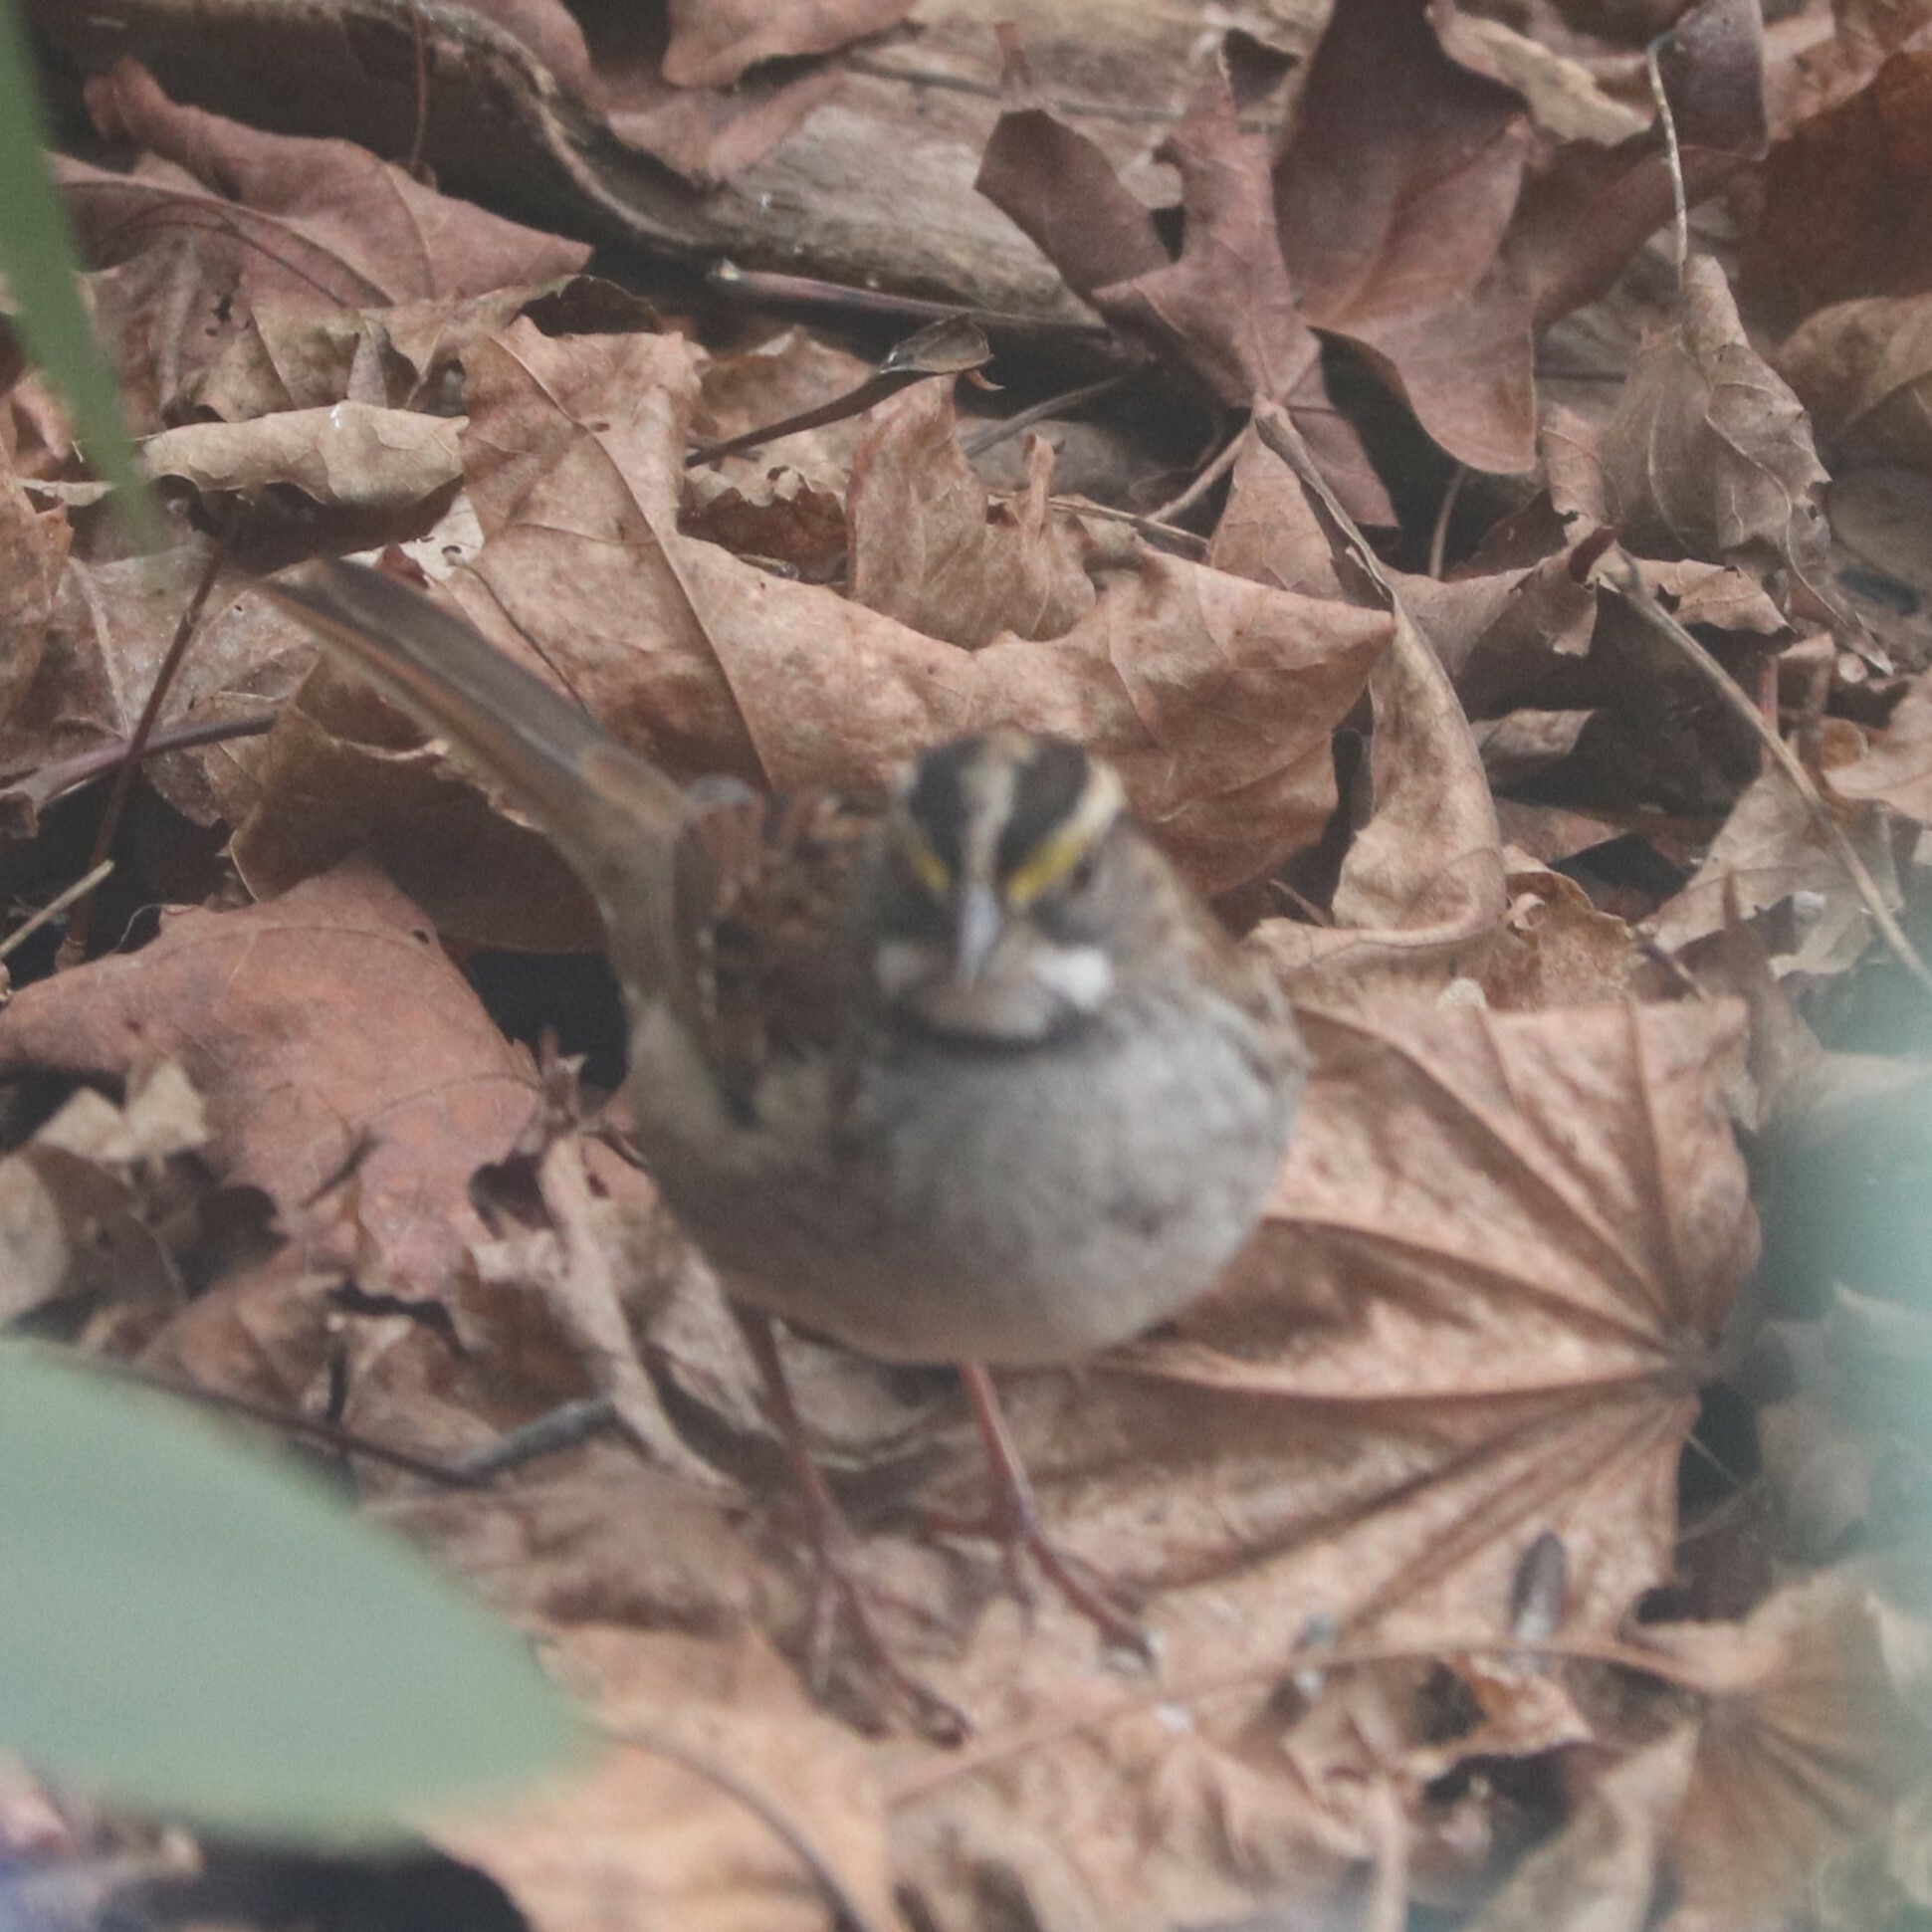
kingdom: Animalia
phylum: Chordata
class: Aves
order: Passeriformes
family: Passerellidae
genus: Zonotrichia
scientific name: Zonotrichia albicollis
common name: White-throated sparrow
